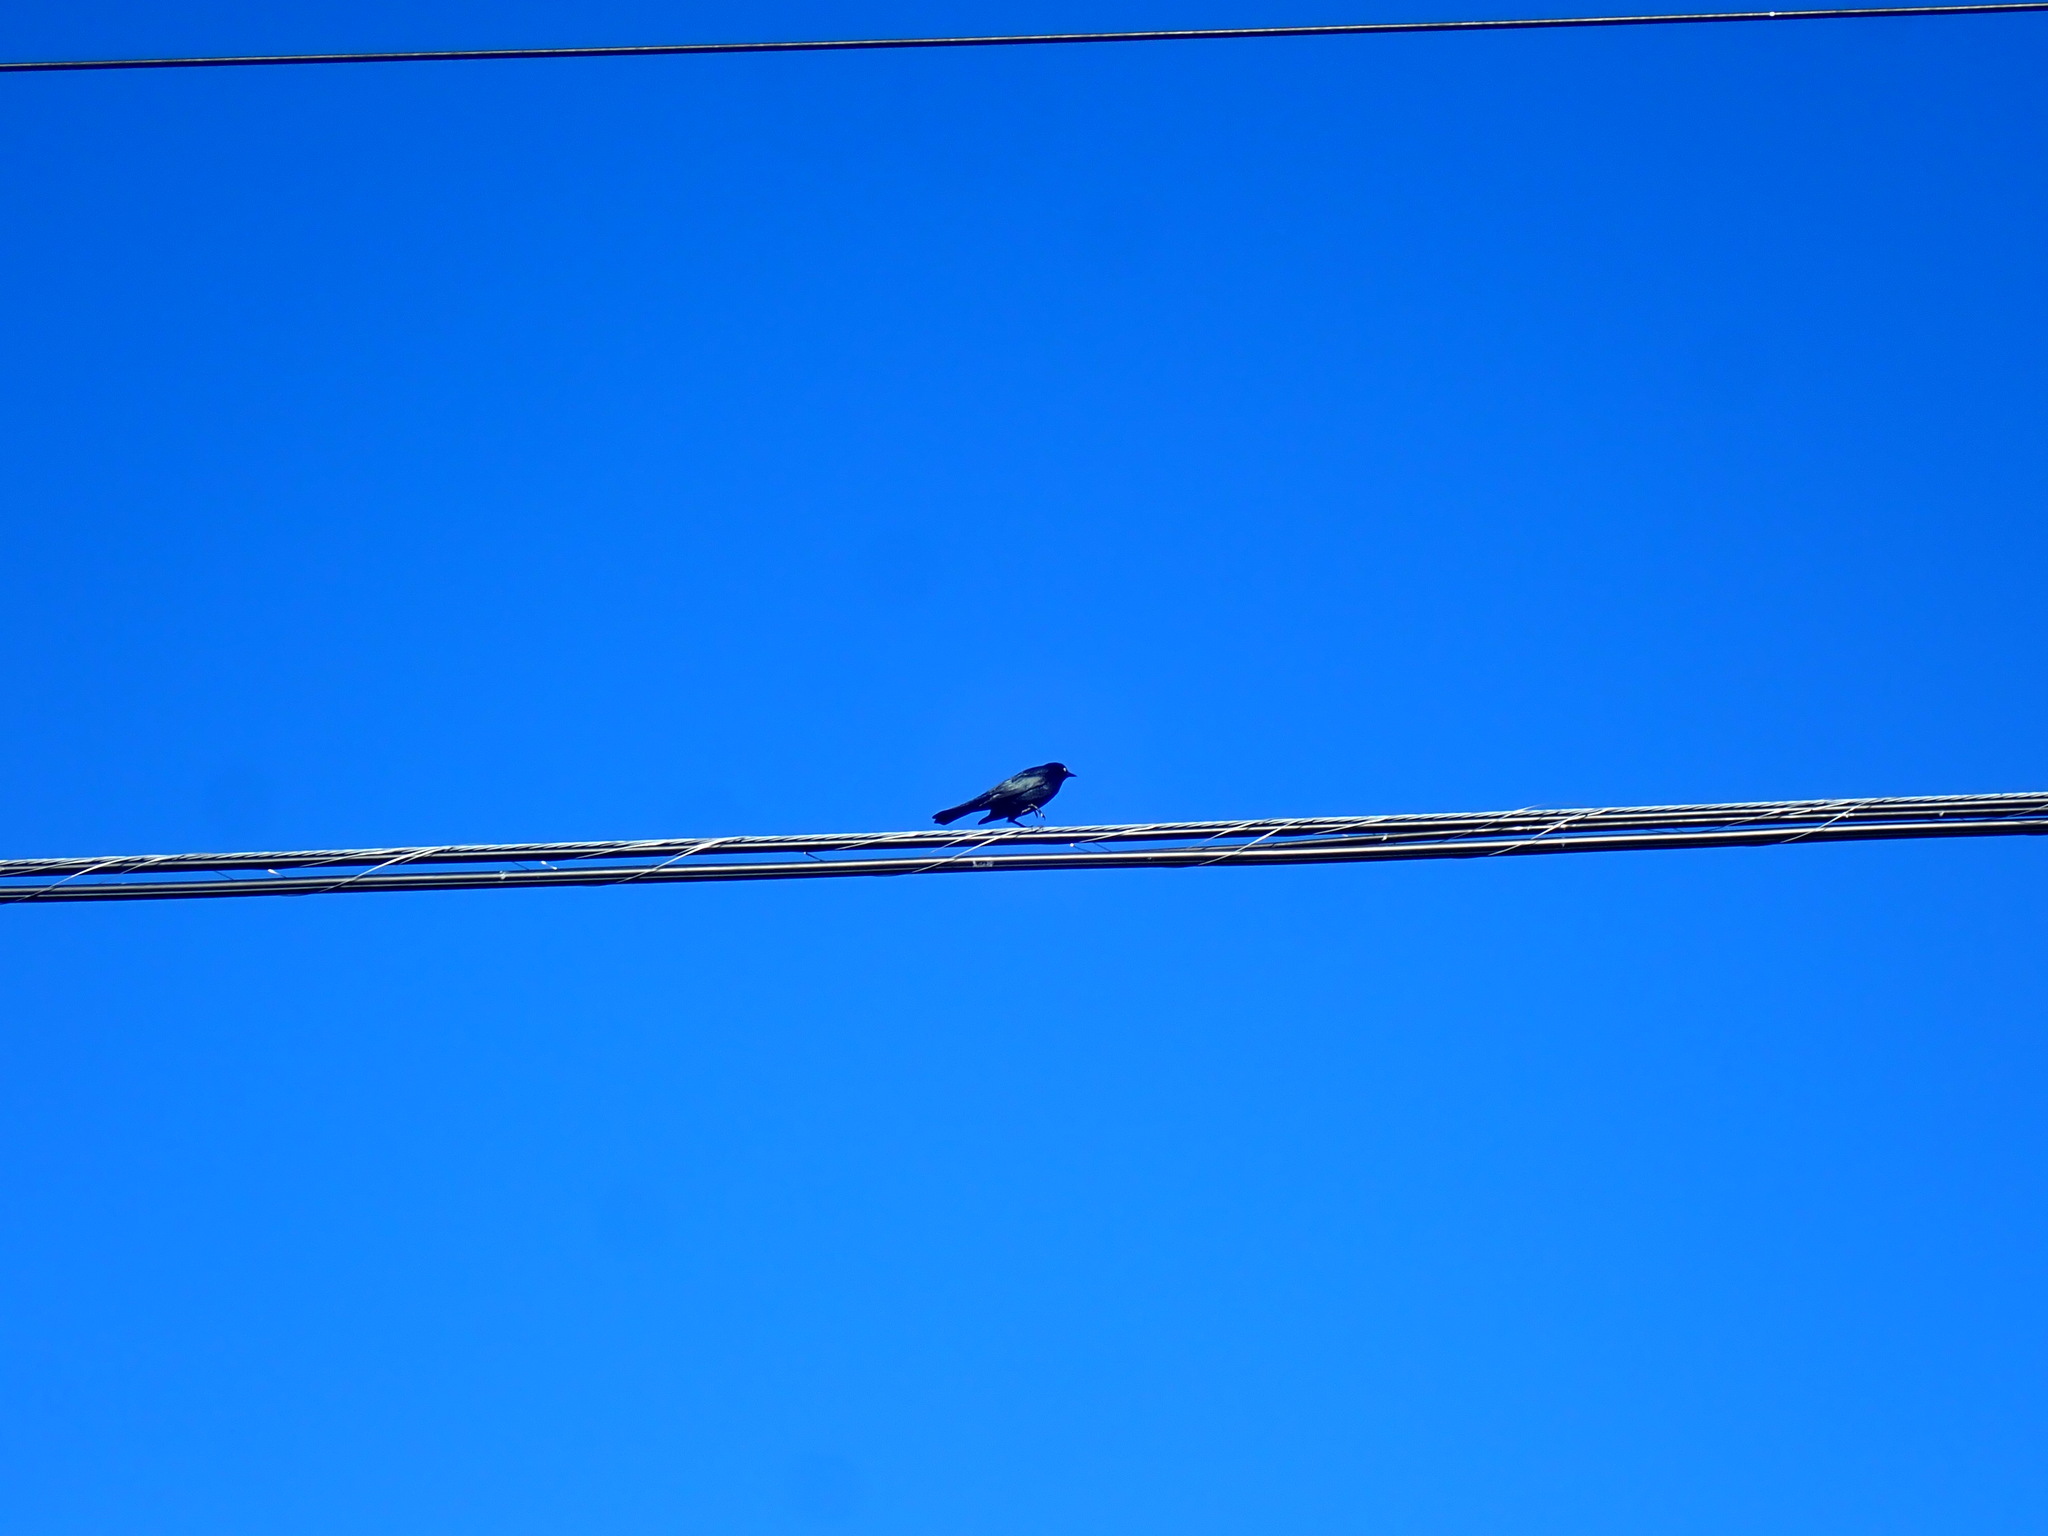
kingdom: Animalia
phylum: Chordata
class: Aves
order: Passeriformes
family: Icteridae
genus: Euphagus
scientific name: Euphagus cyanocephalus
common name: Brewer's blackbird
